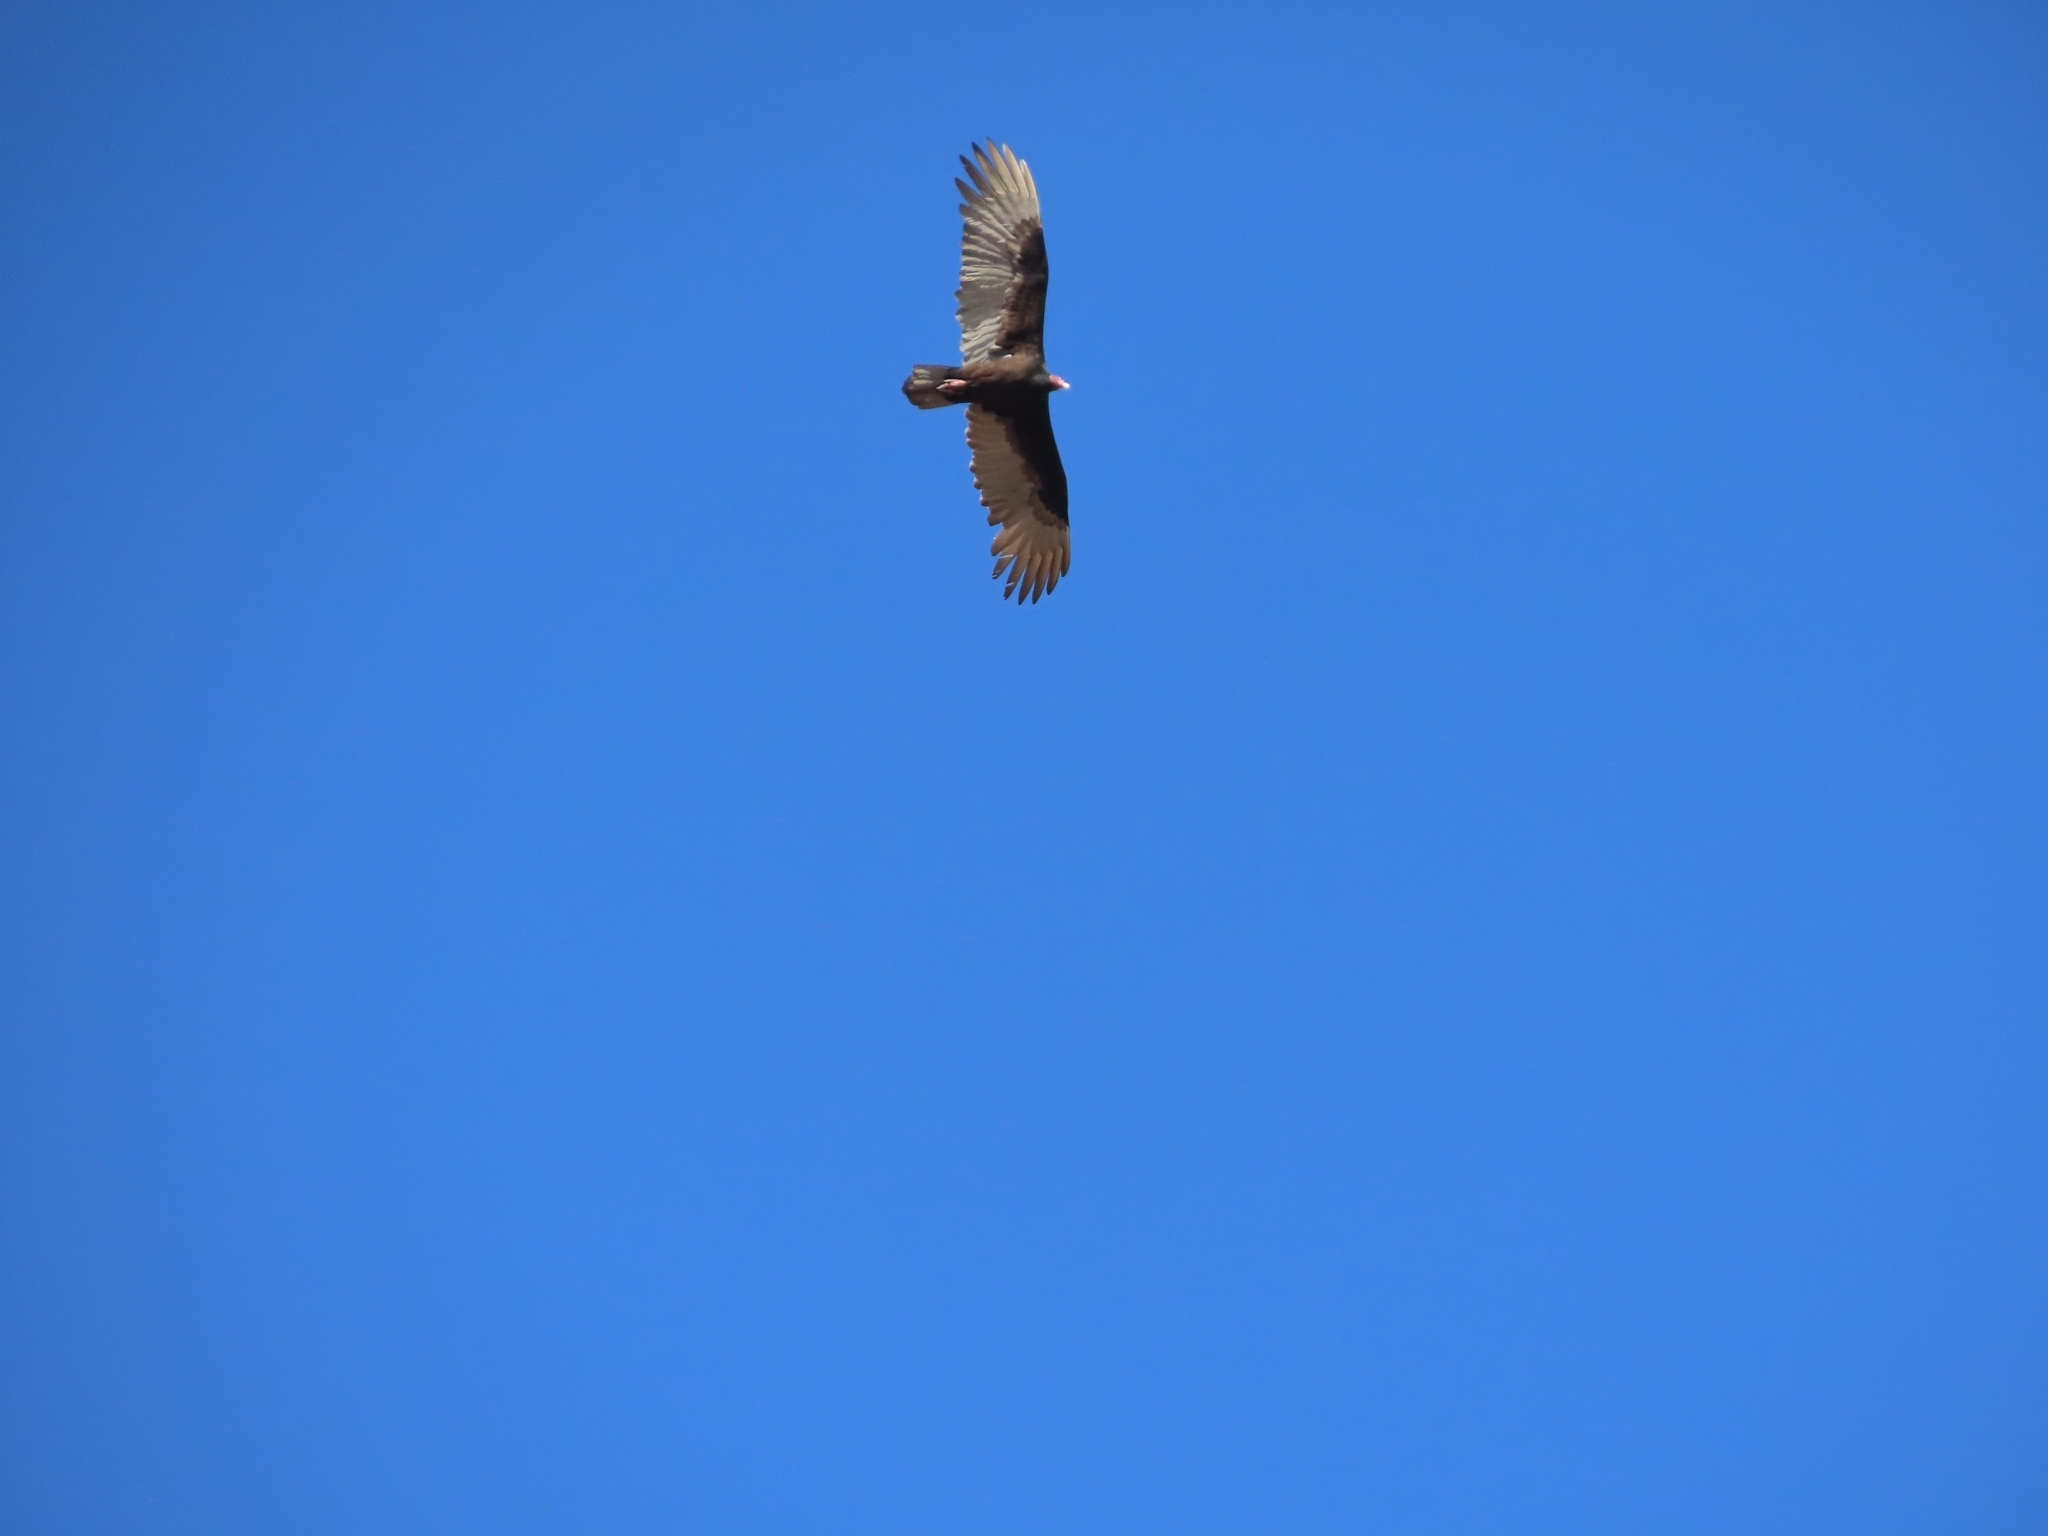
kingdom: Animalia
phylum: Chordata
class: Aves
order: Accipitriformes
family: Cathartidae
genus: Cathartes
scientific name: Cathartes aura
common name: Turkey vulture
